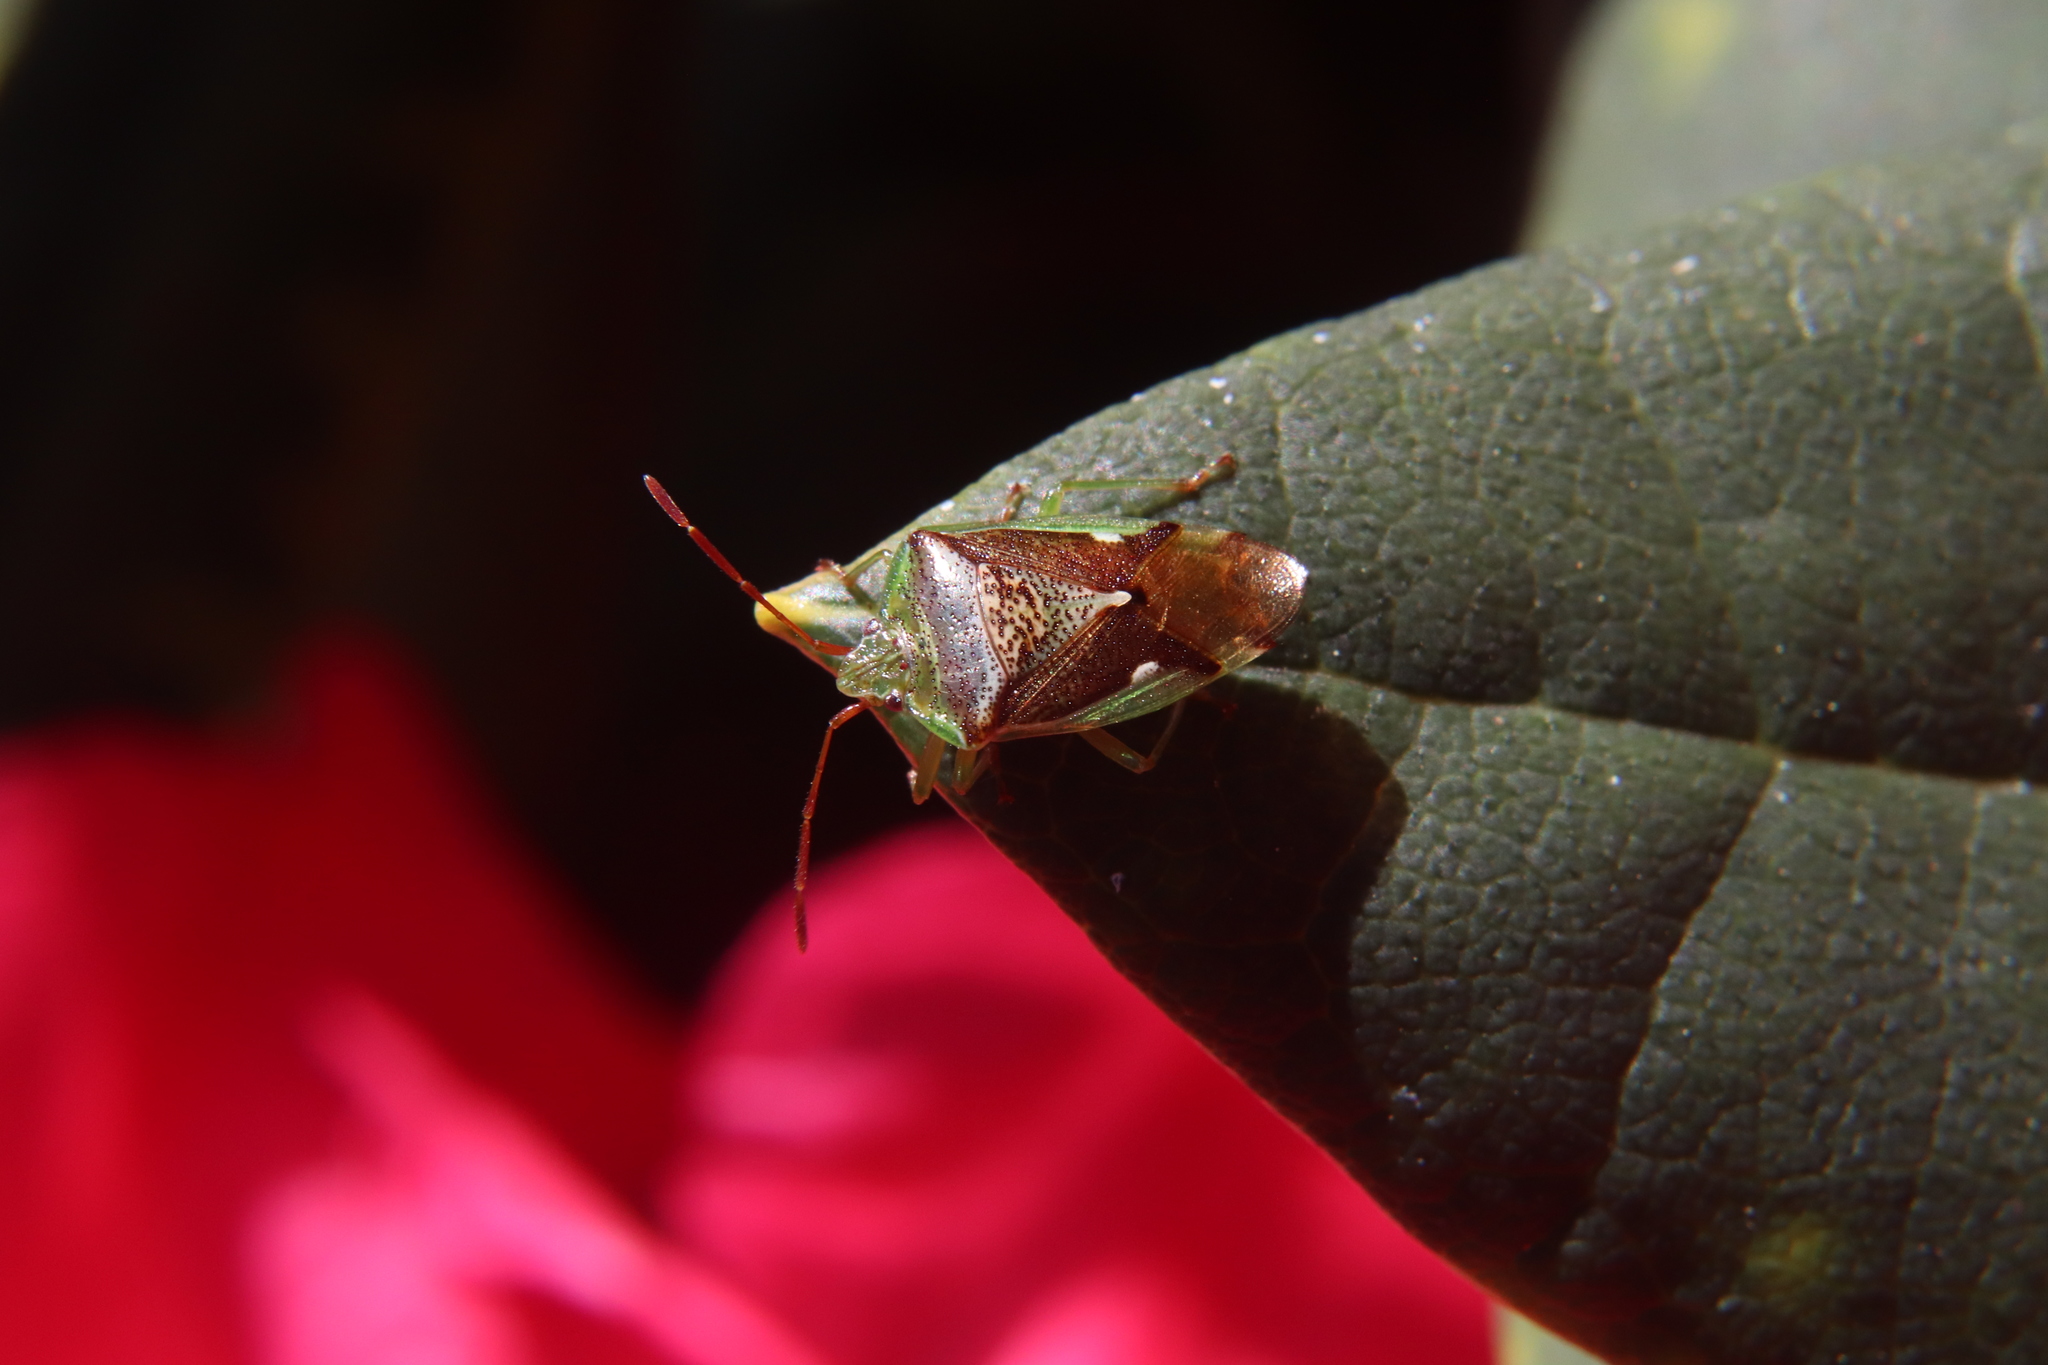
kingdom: Animalia
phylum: Arthropoda
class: Insecta
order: Hemiptera
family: Acanthosomatidae
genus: Oncacontias
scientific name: Oncacontias vittatus
